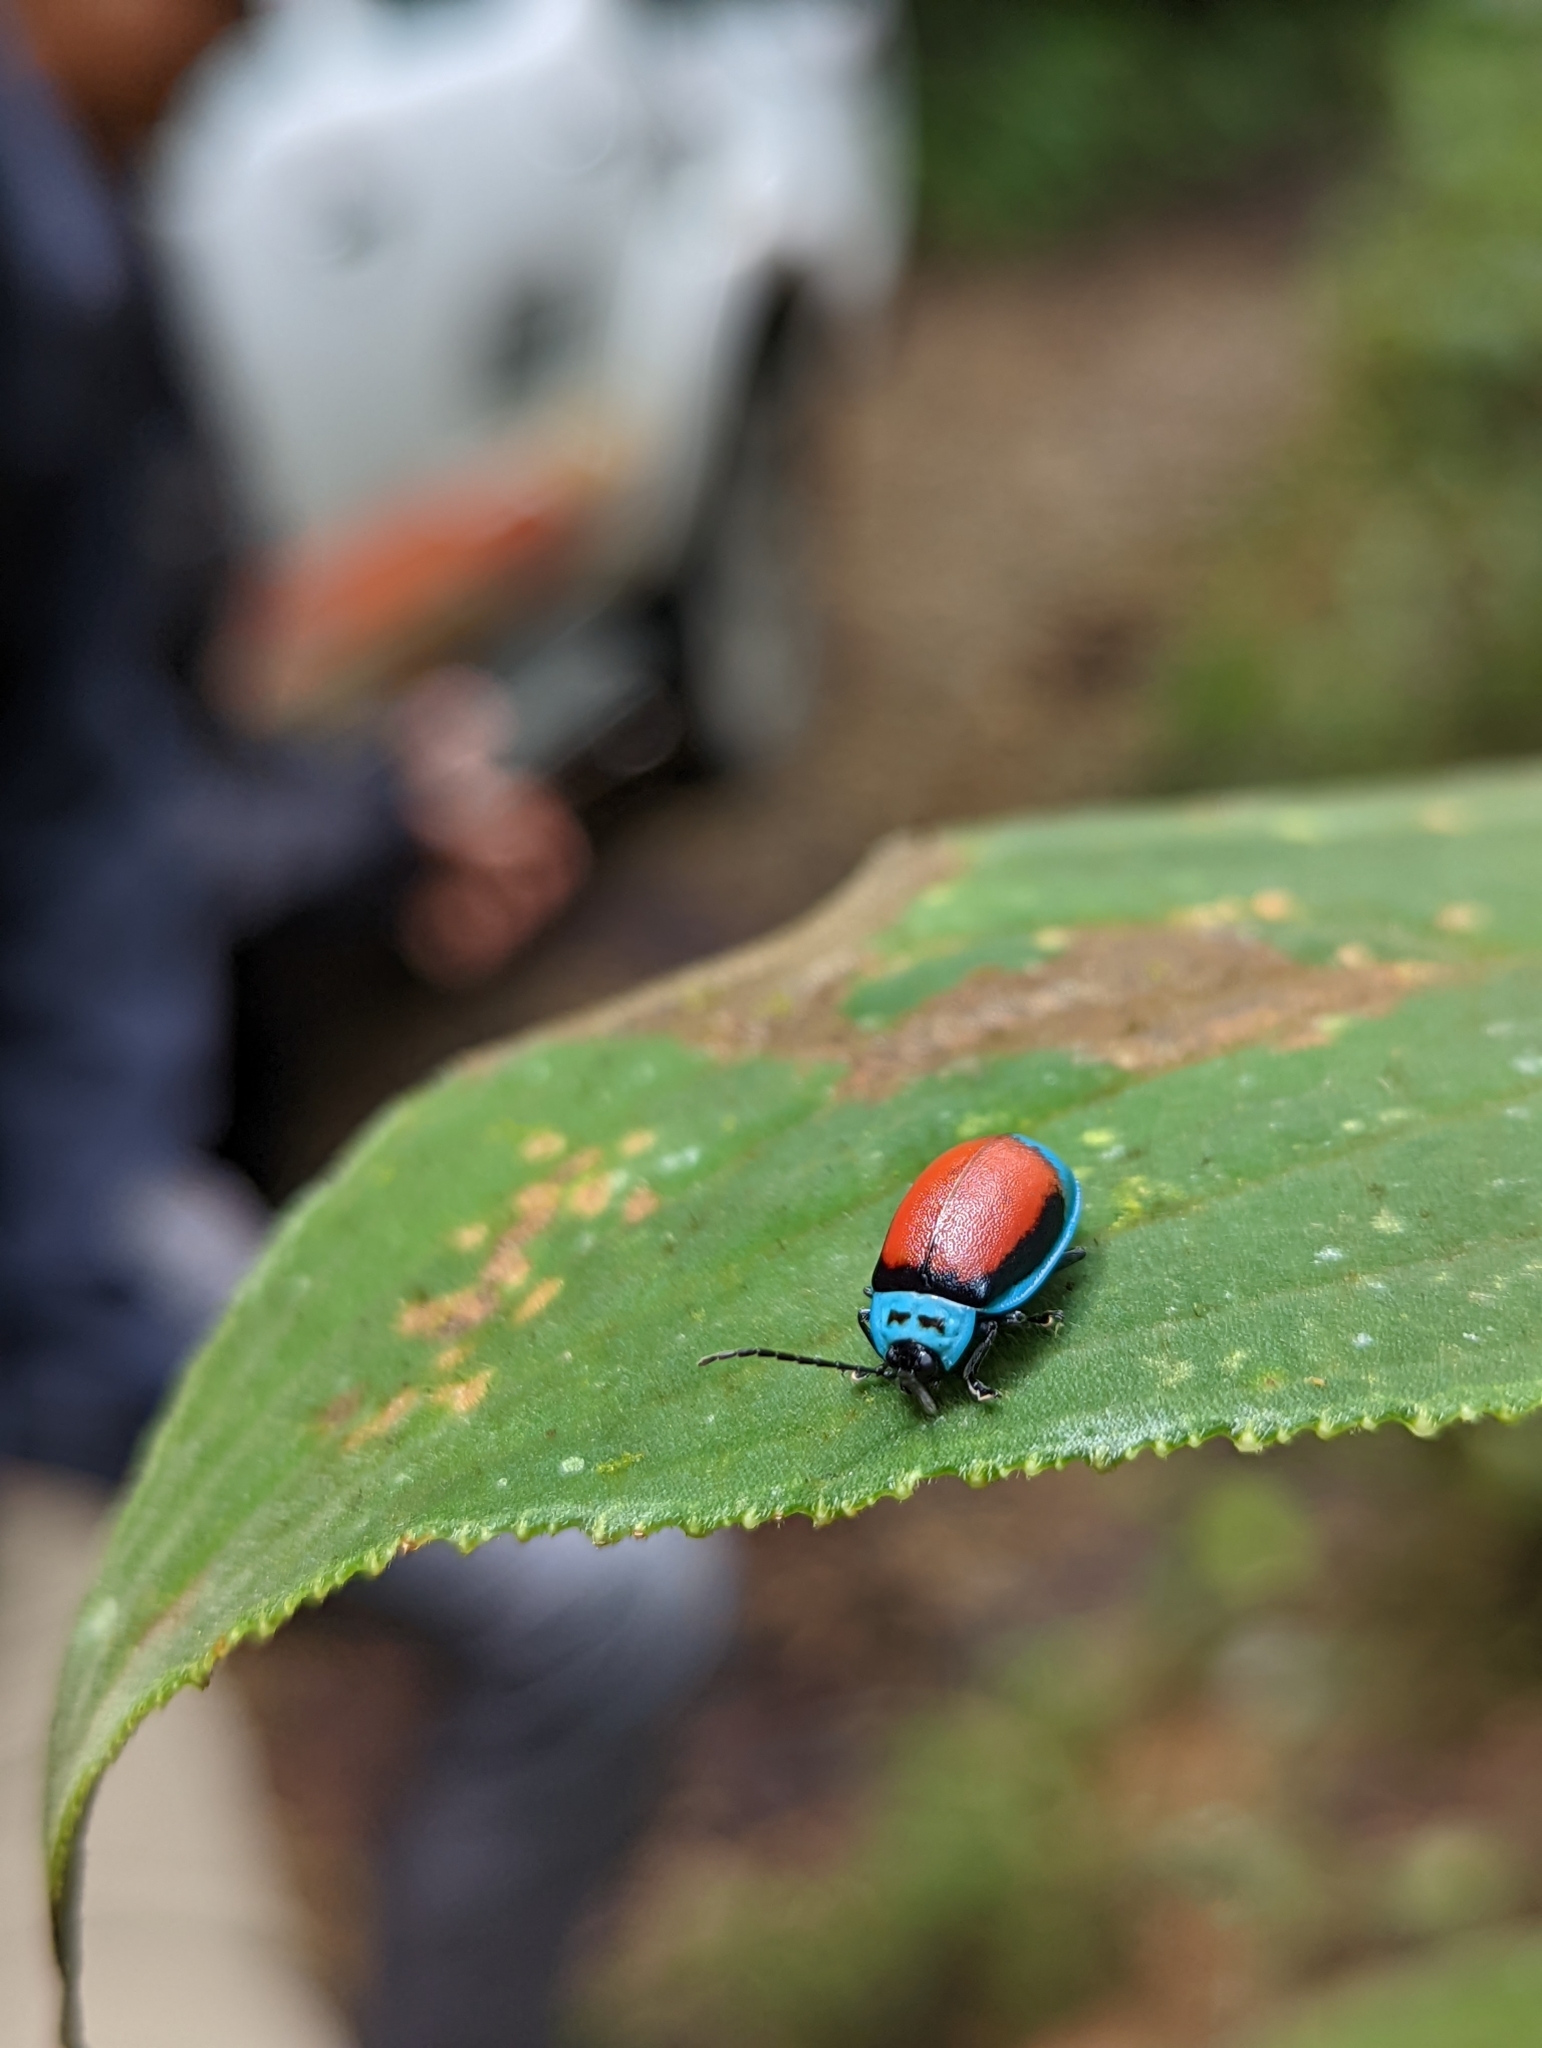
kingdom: Animalia
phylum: Arthropoda
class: Insecta
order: Coleoptera
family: Chrysomelidae
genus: Aspicela
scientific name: Aspicela
